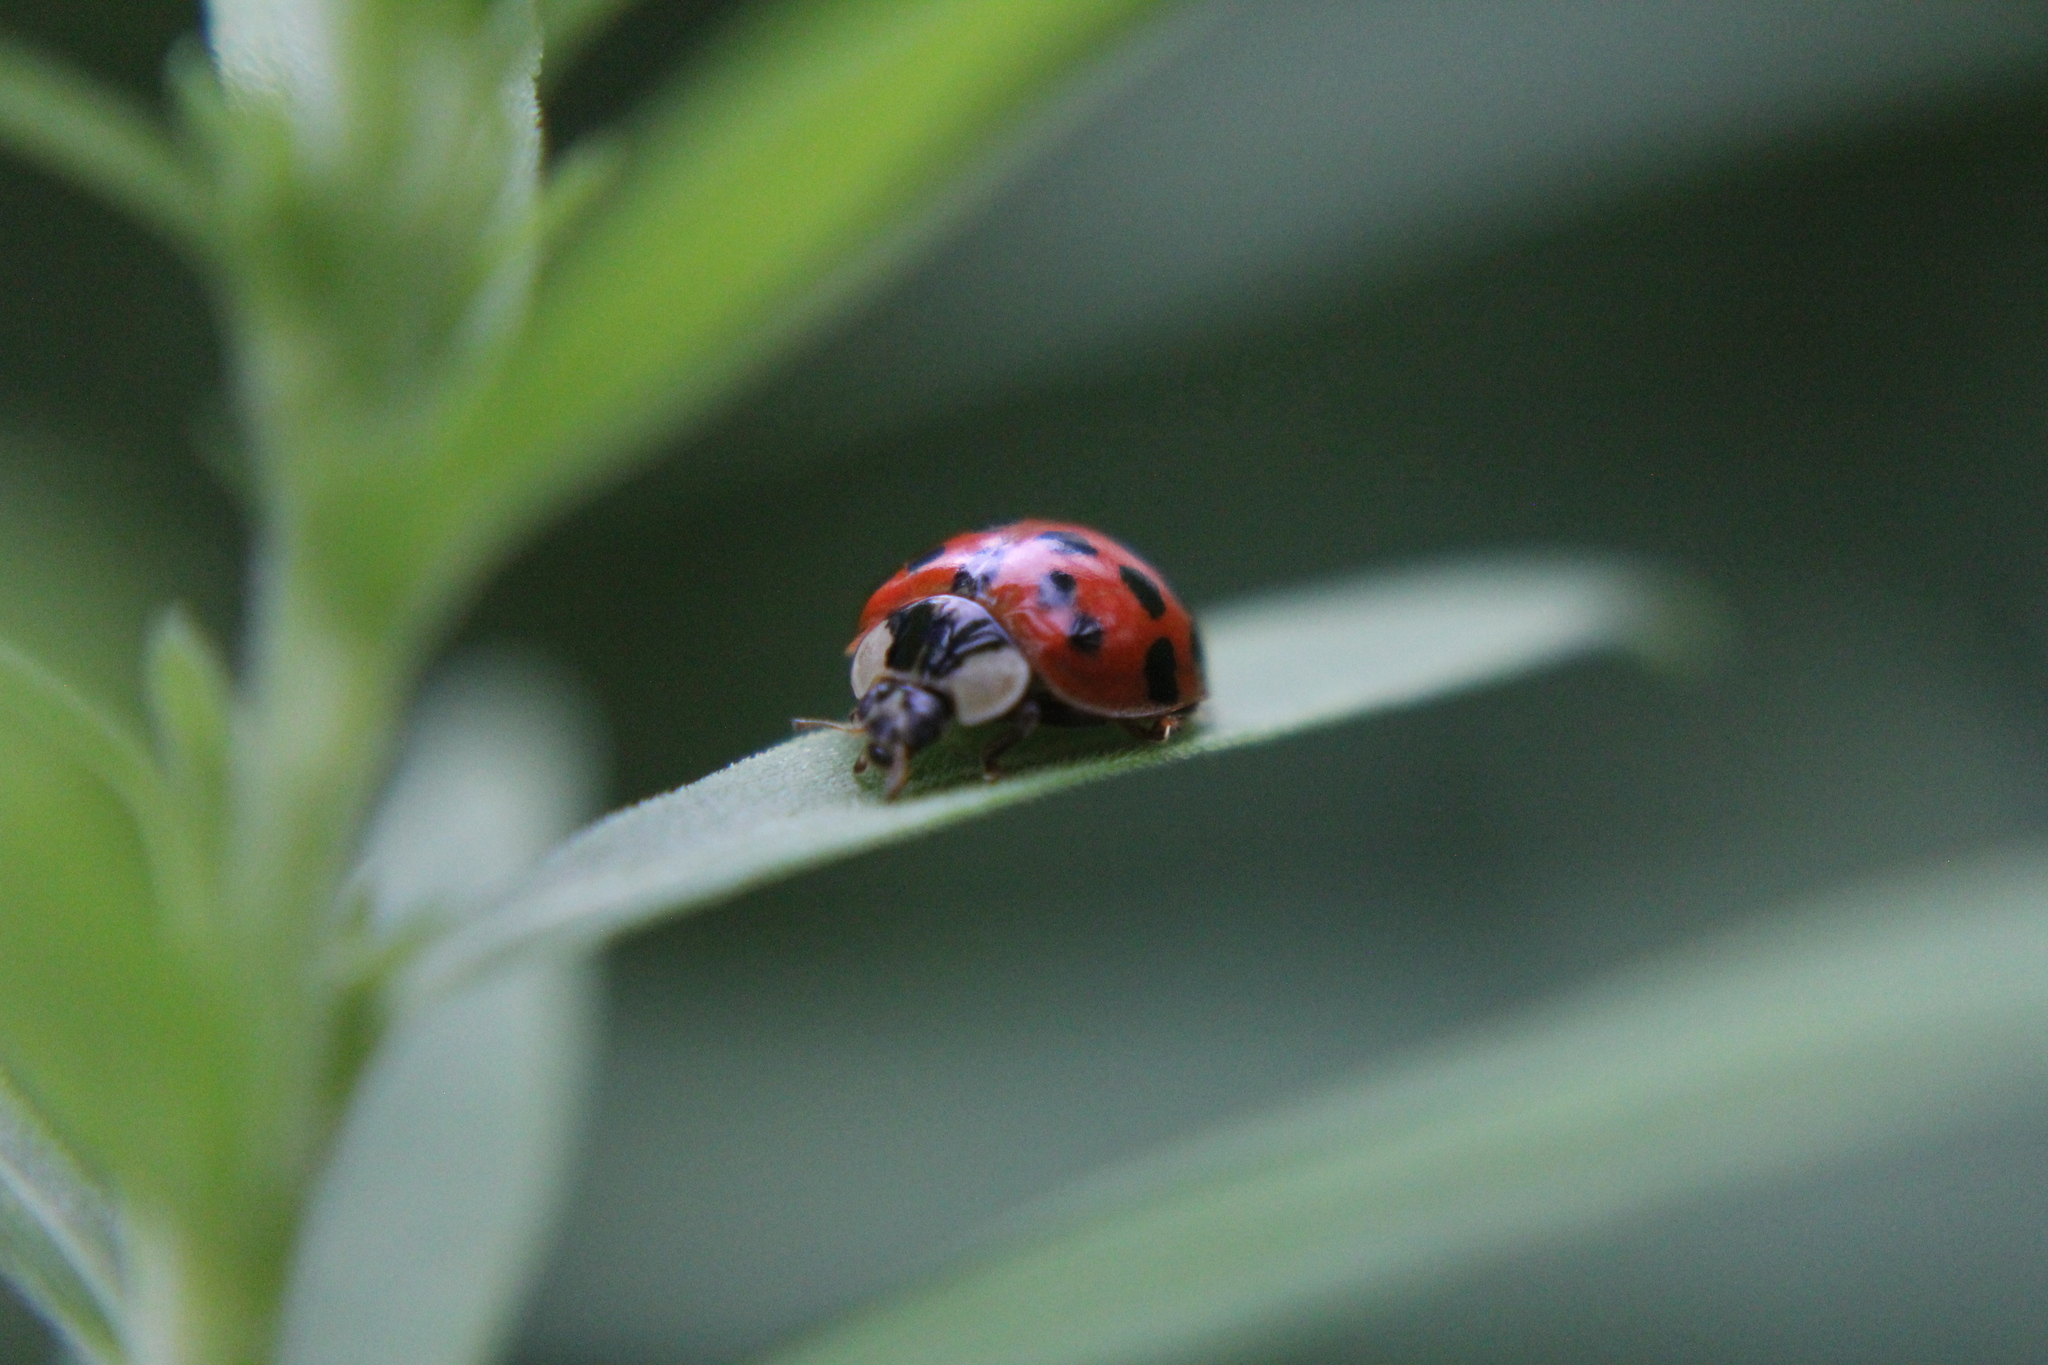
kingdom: Animalia
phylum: Arthropoda
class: Insecta
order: Coleoptera
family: Coccinellidae
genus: Harmonia
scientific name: Harmonia axyridis
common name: Harlequin ladybird
